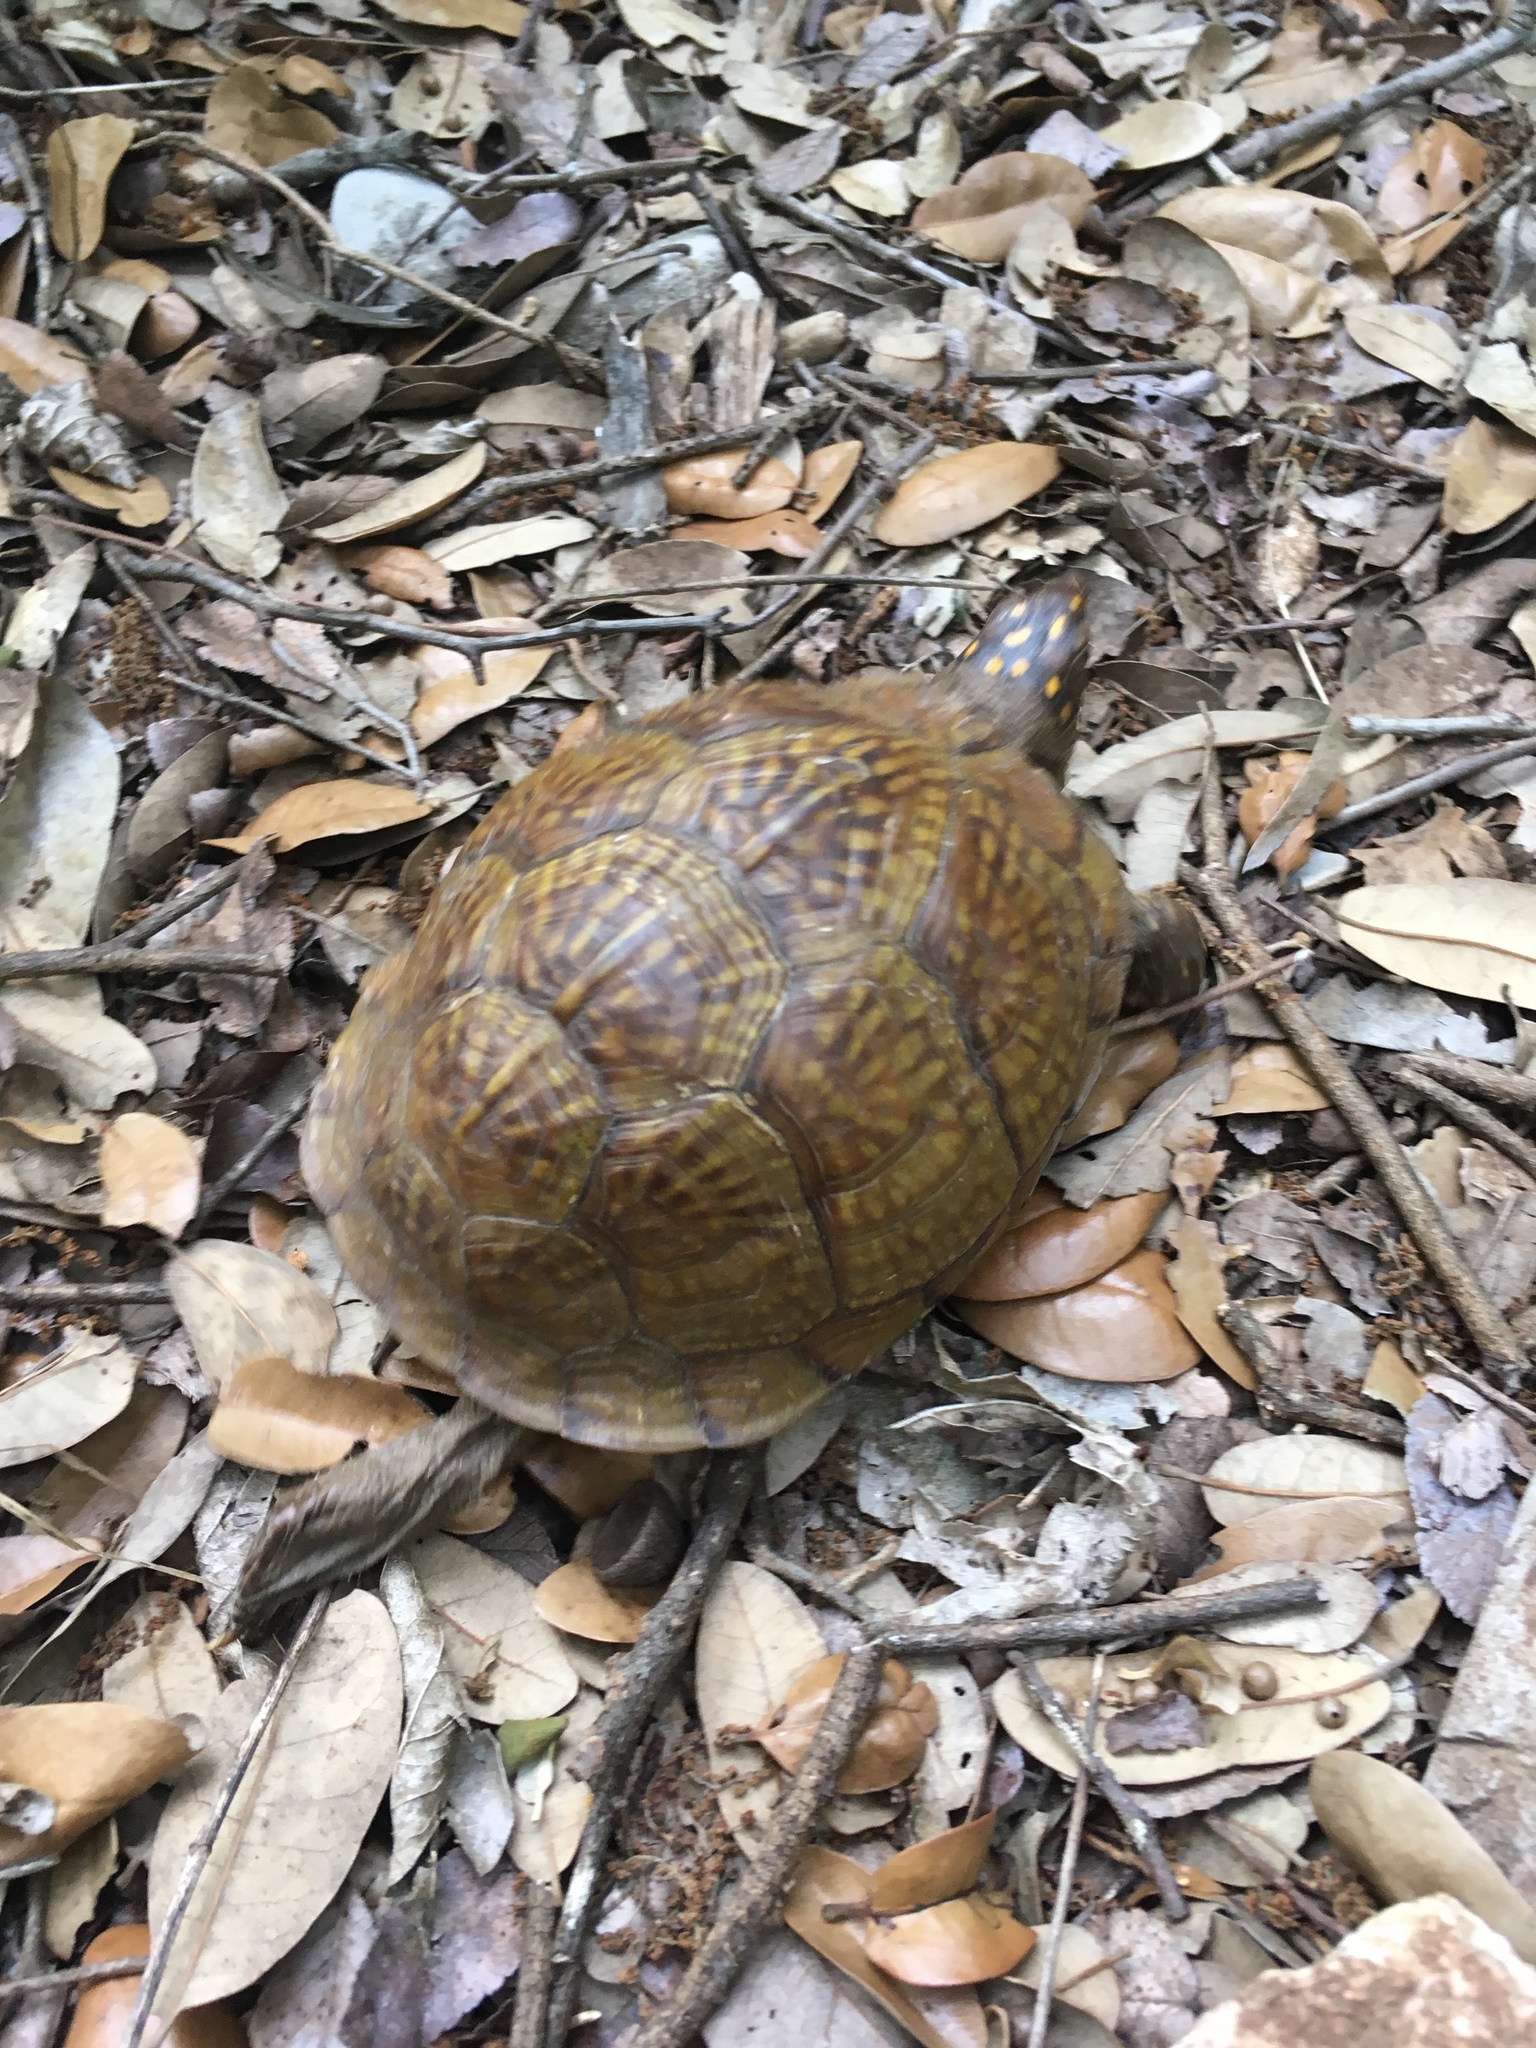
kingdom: Animalia
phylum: Chordata
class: Testudines
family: Emydidae
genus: Terrapene
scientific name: Terrapene carolina
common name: Common box turtle
